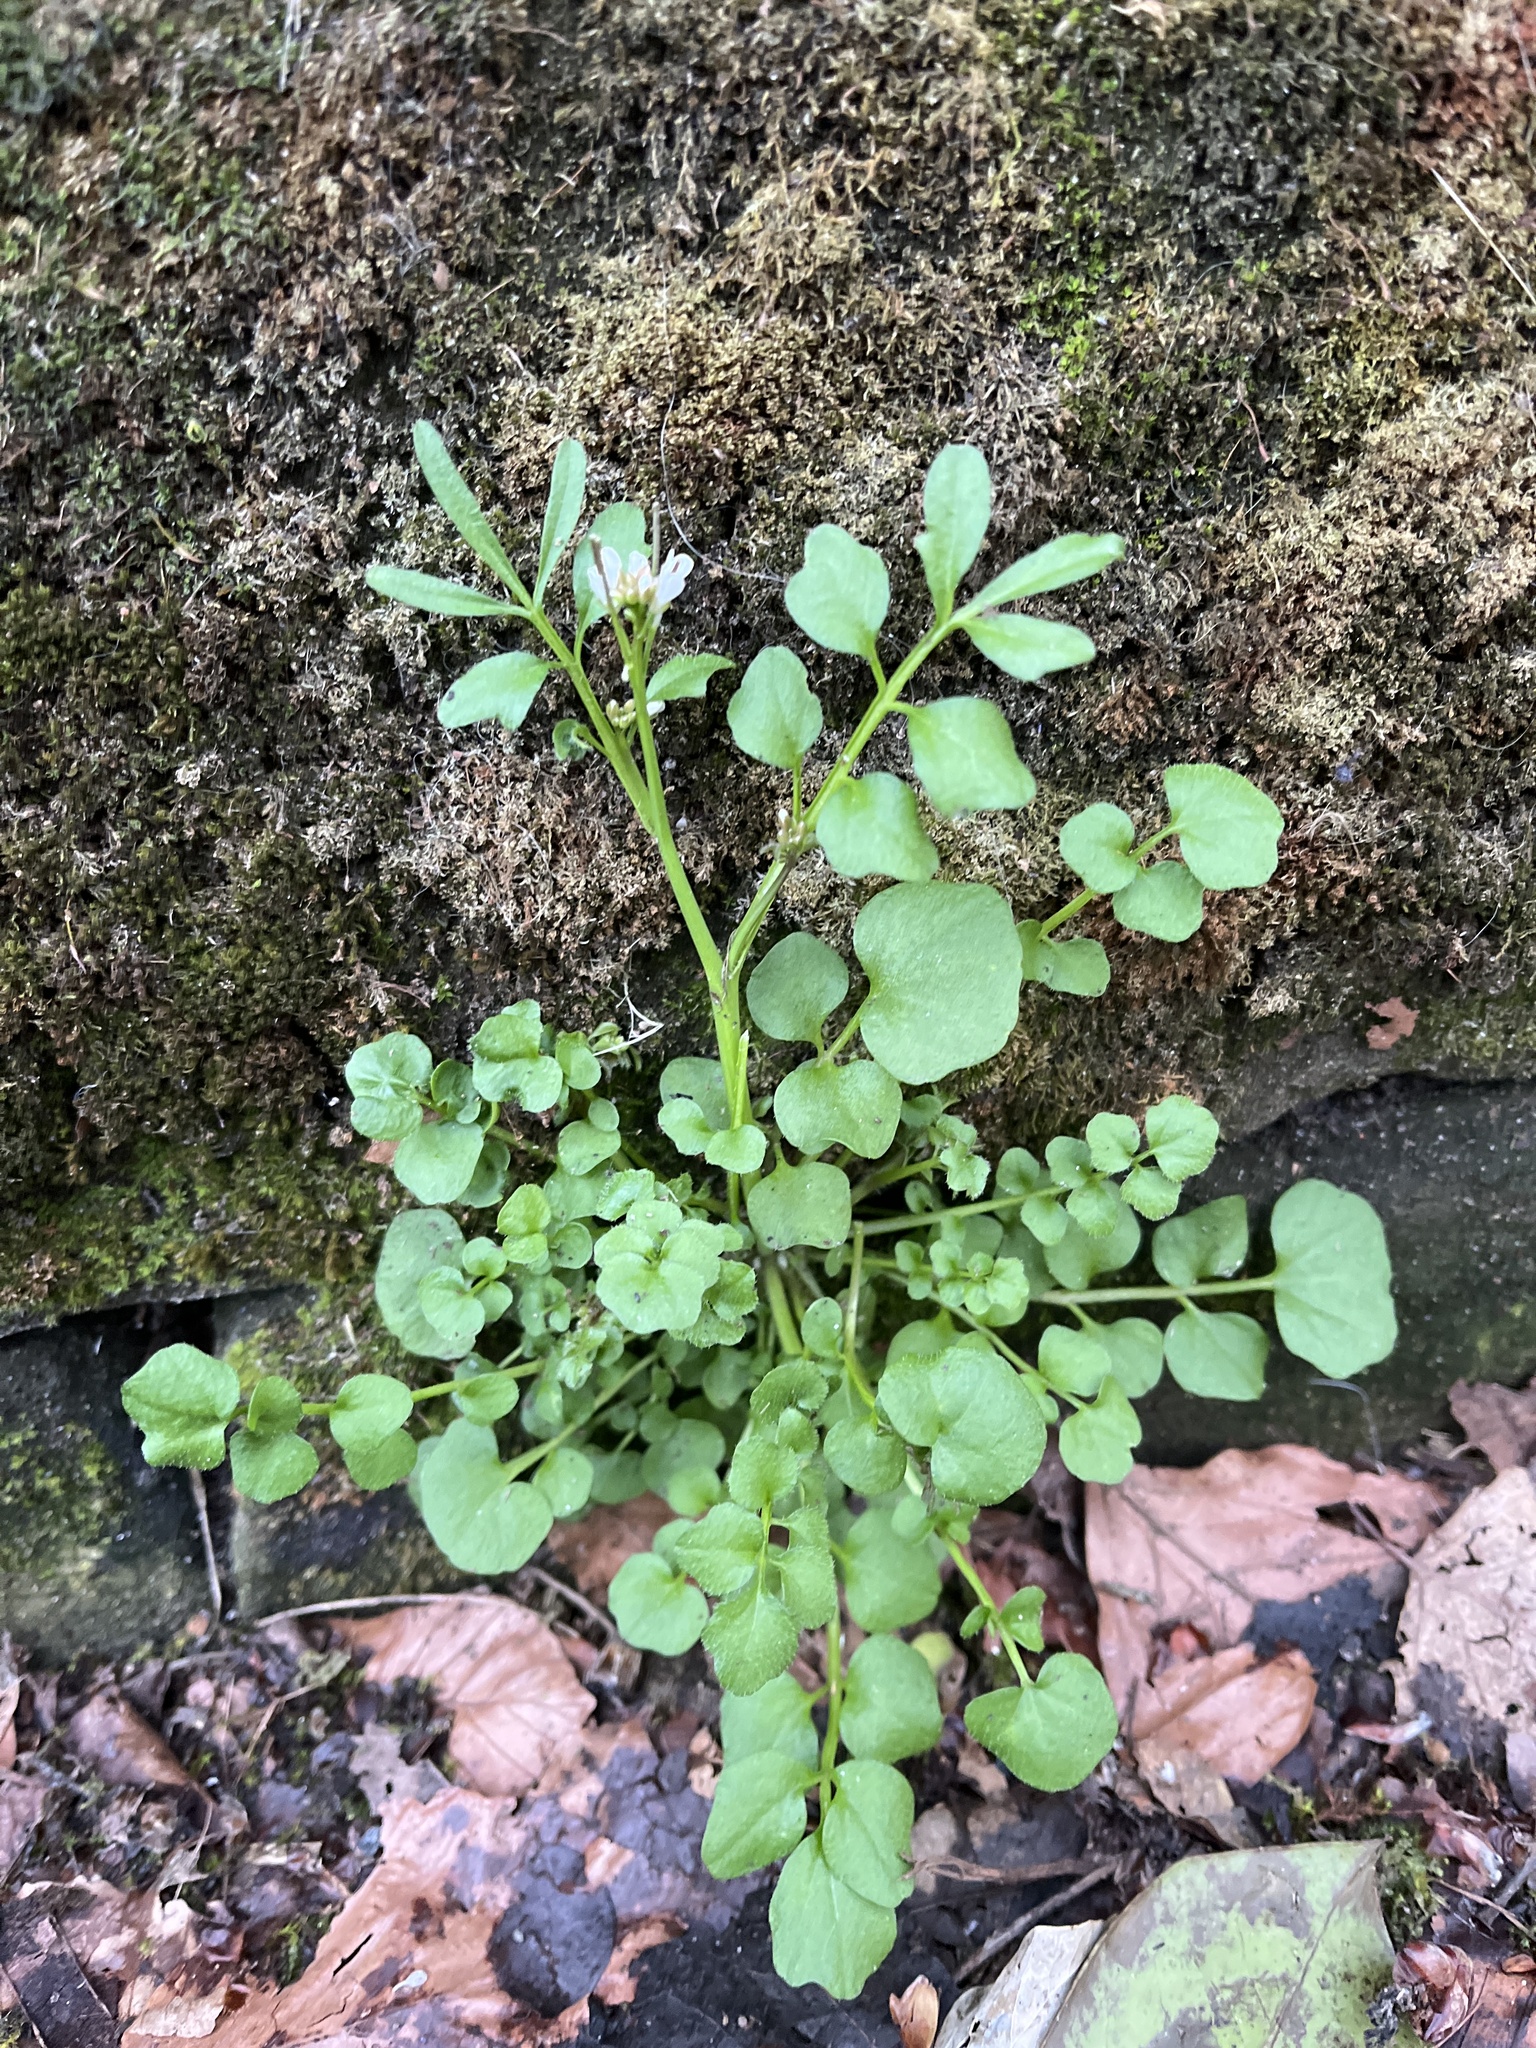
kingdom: Plantae
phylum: Tracheophyta
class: Magnoliopsida
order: Brassicales
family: Brassicaceae
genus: Cardamine
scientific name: Cardamine hirsuta
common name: Hairy bittercress
